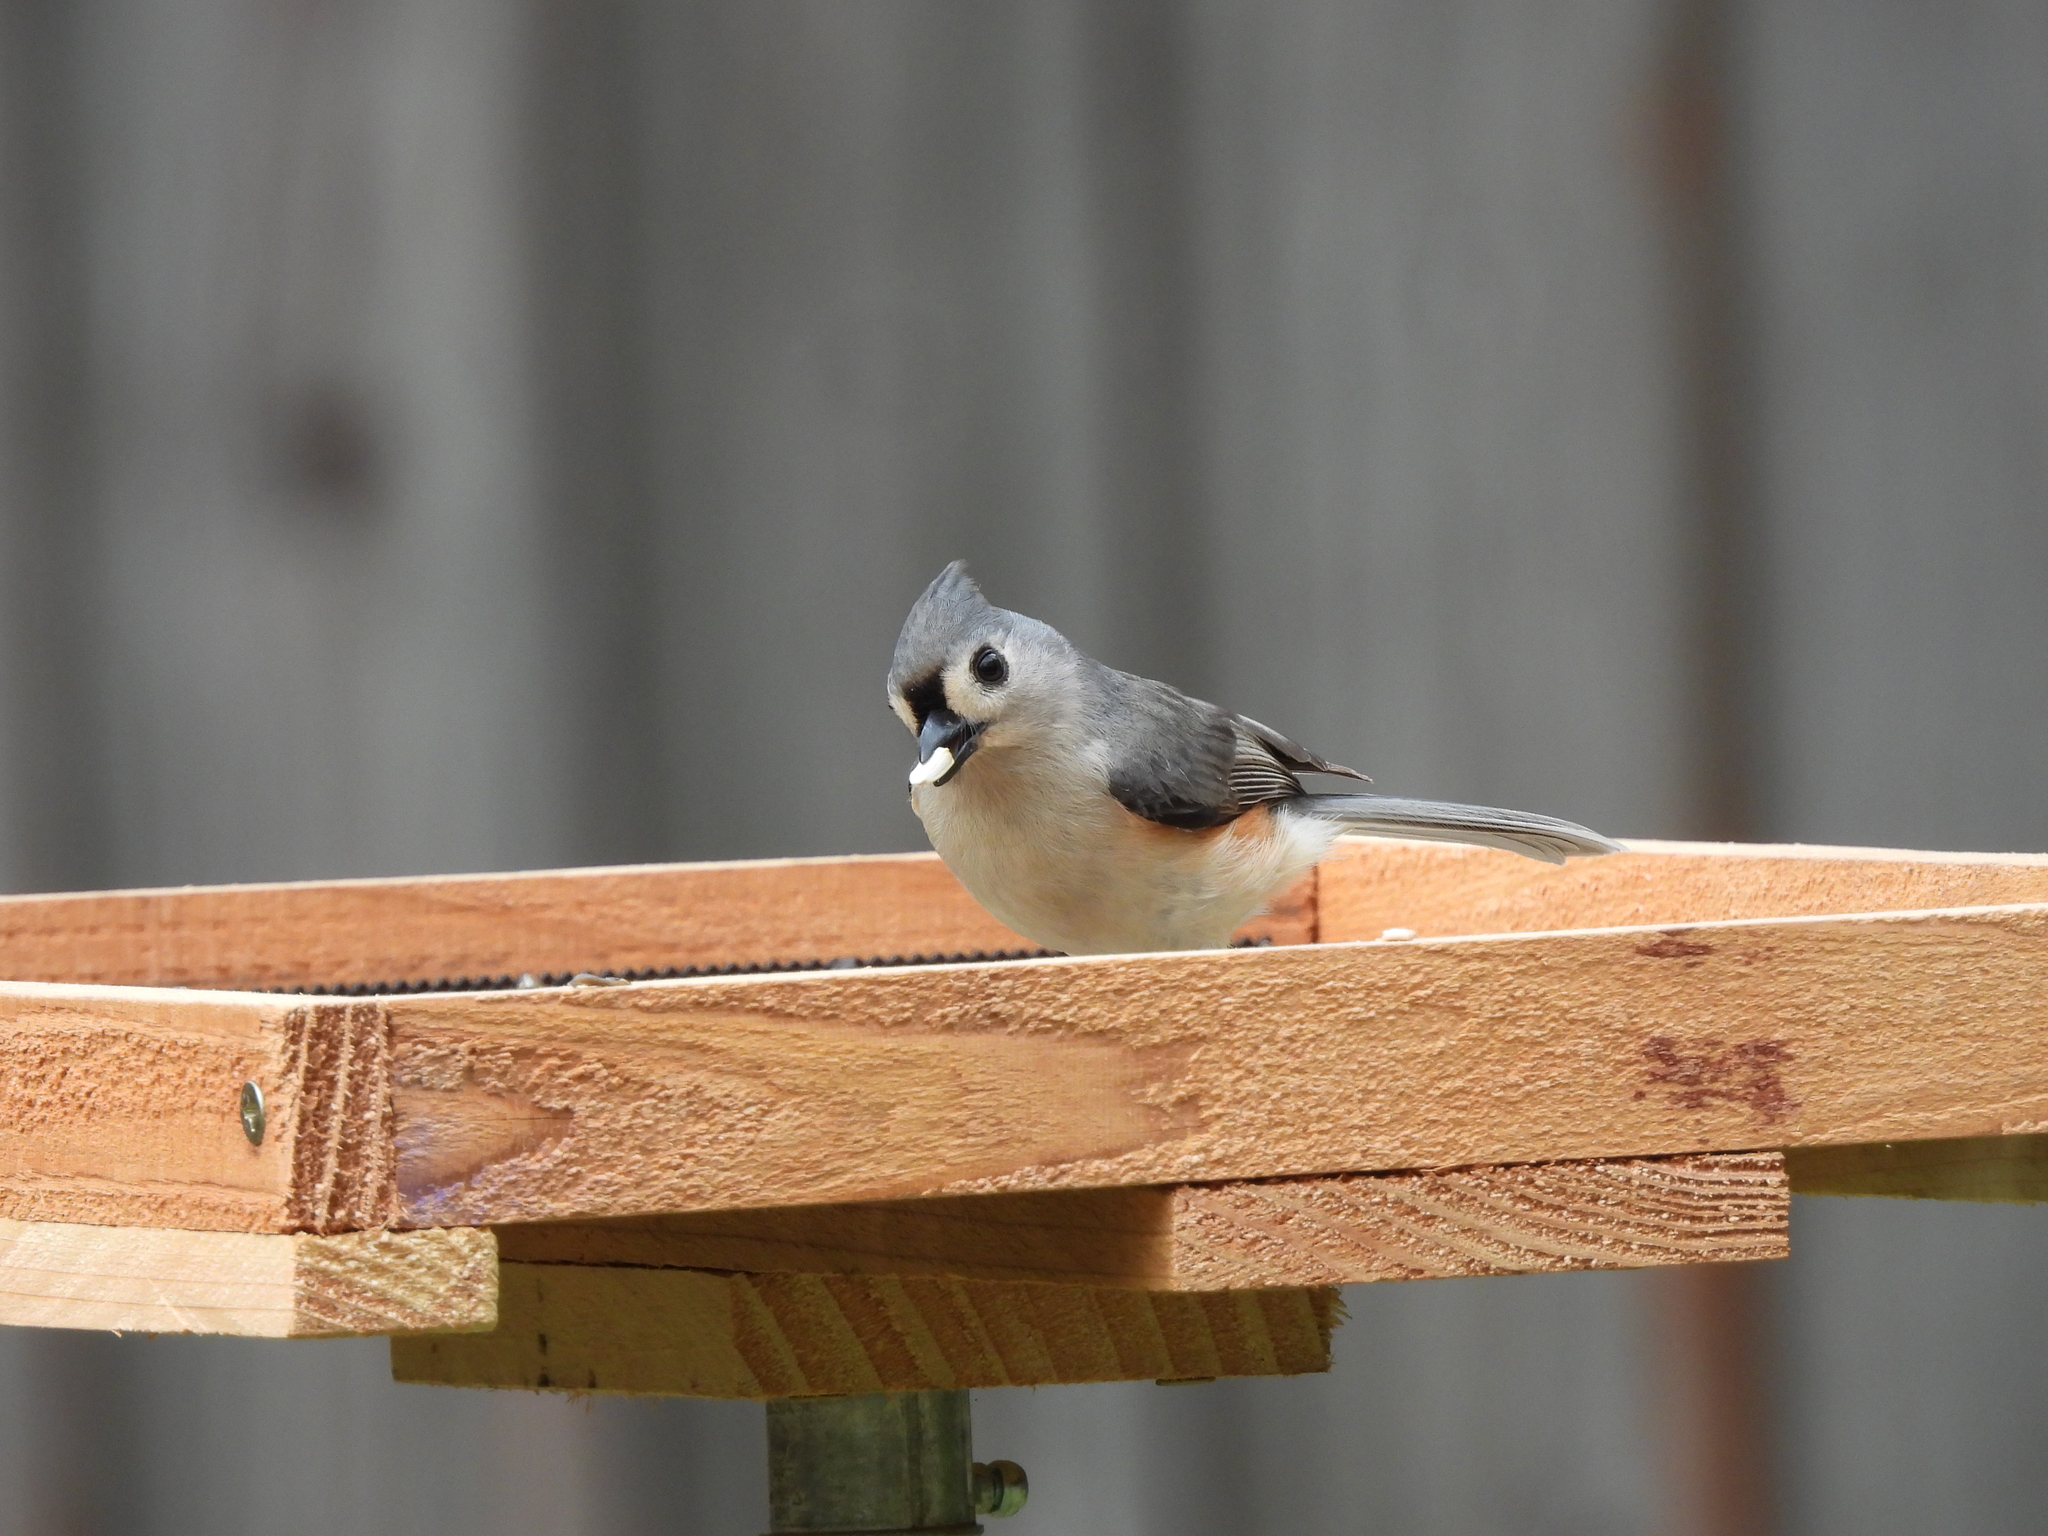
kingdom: Animalia
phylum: Chordata
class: Aves
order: Passeriformes
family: Paridae
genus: Baeolophus
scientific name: Baeolophus bicolor
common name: Tufted titmouse
